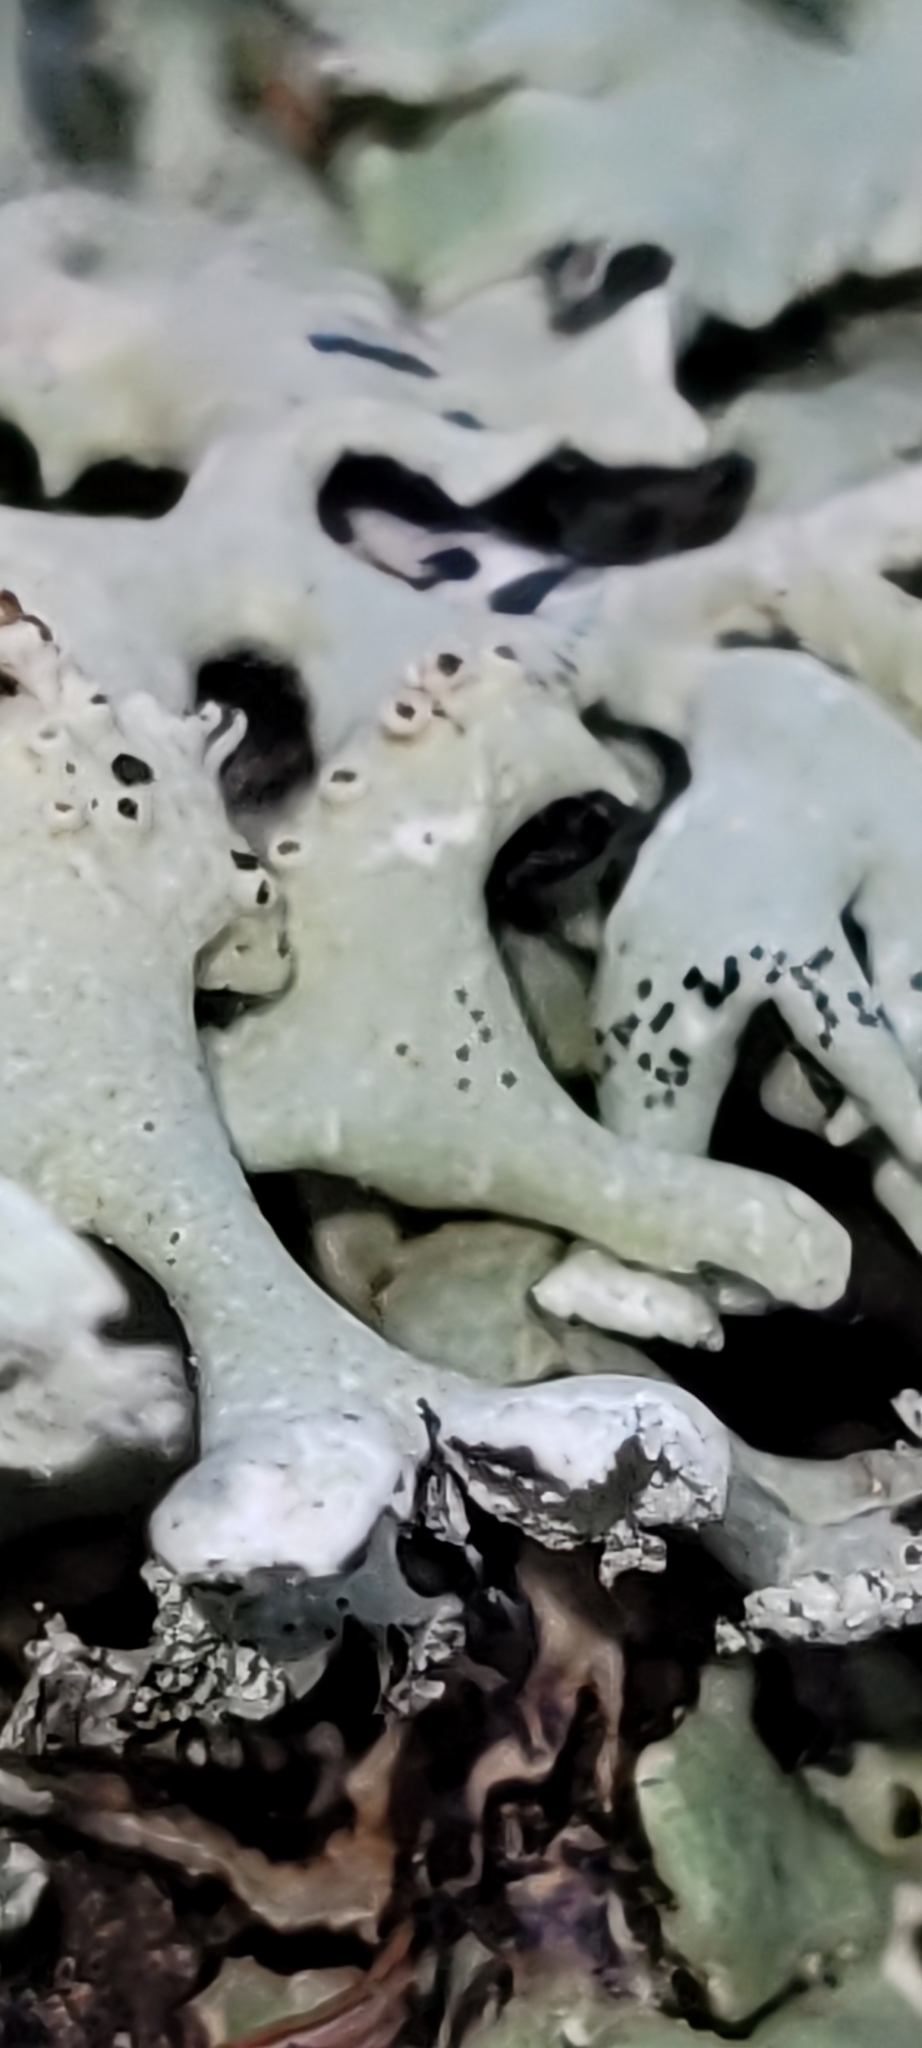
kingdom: Fungi
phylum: Ascomycota
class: Lecanoromycetes
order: Lecanorales
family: Parmeliaceae
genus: Hypogymnia
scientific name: Hypogymnia physodes
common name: Dark crottle
